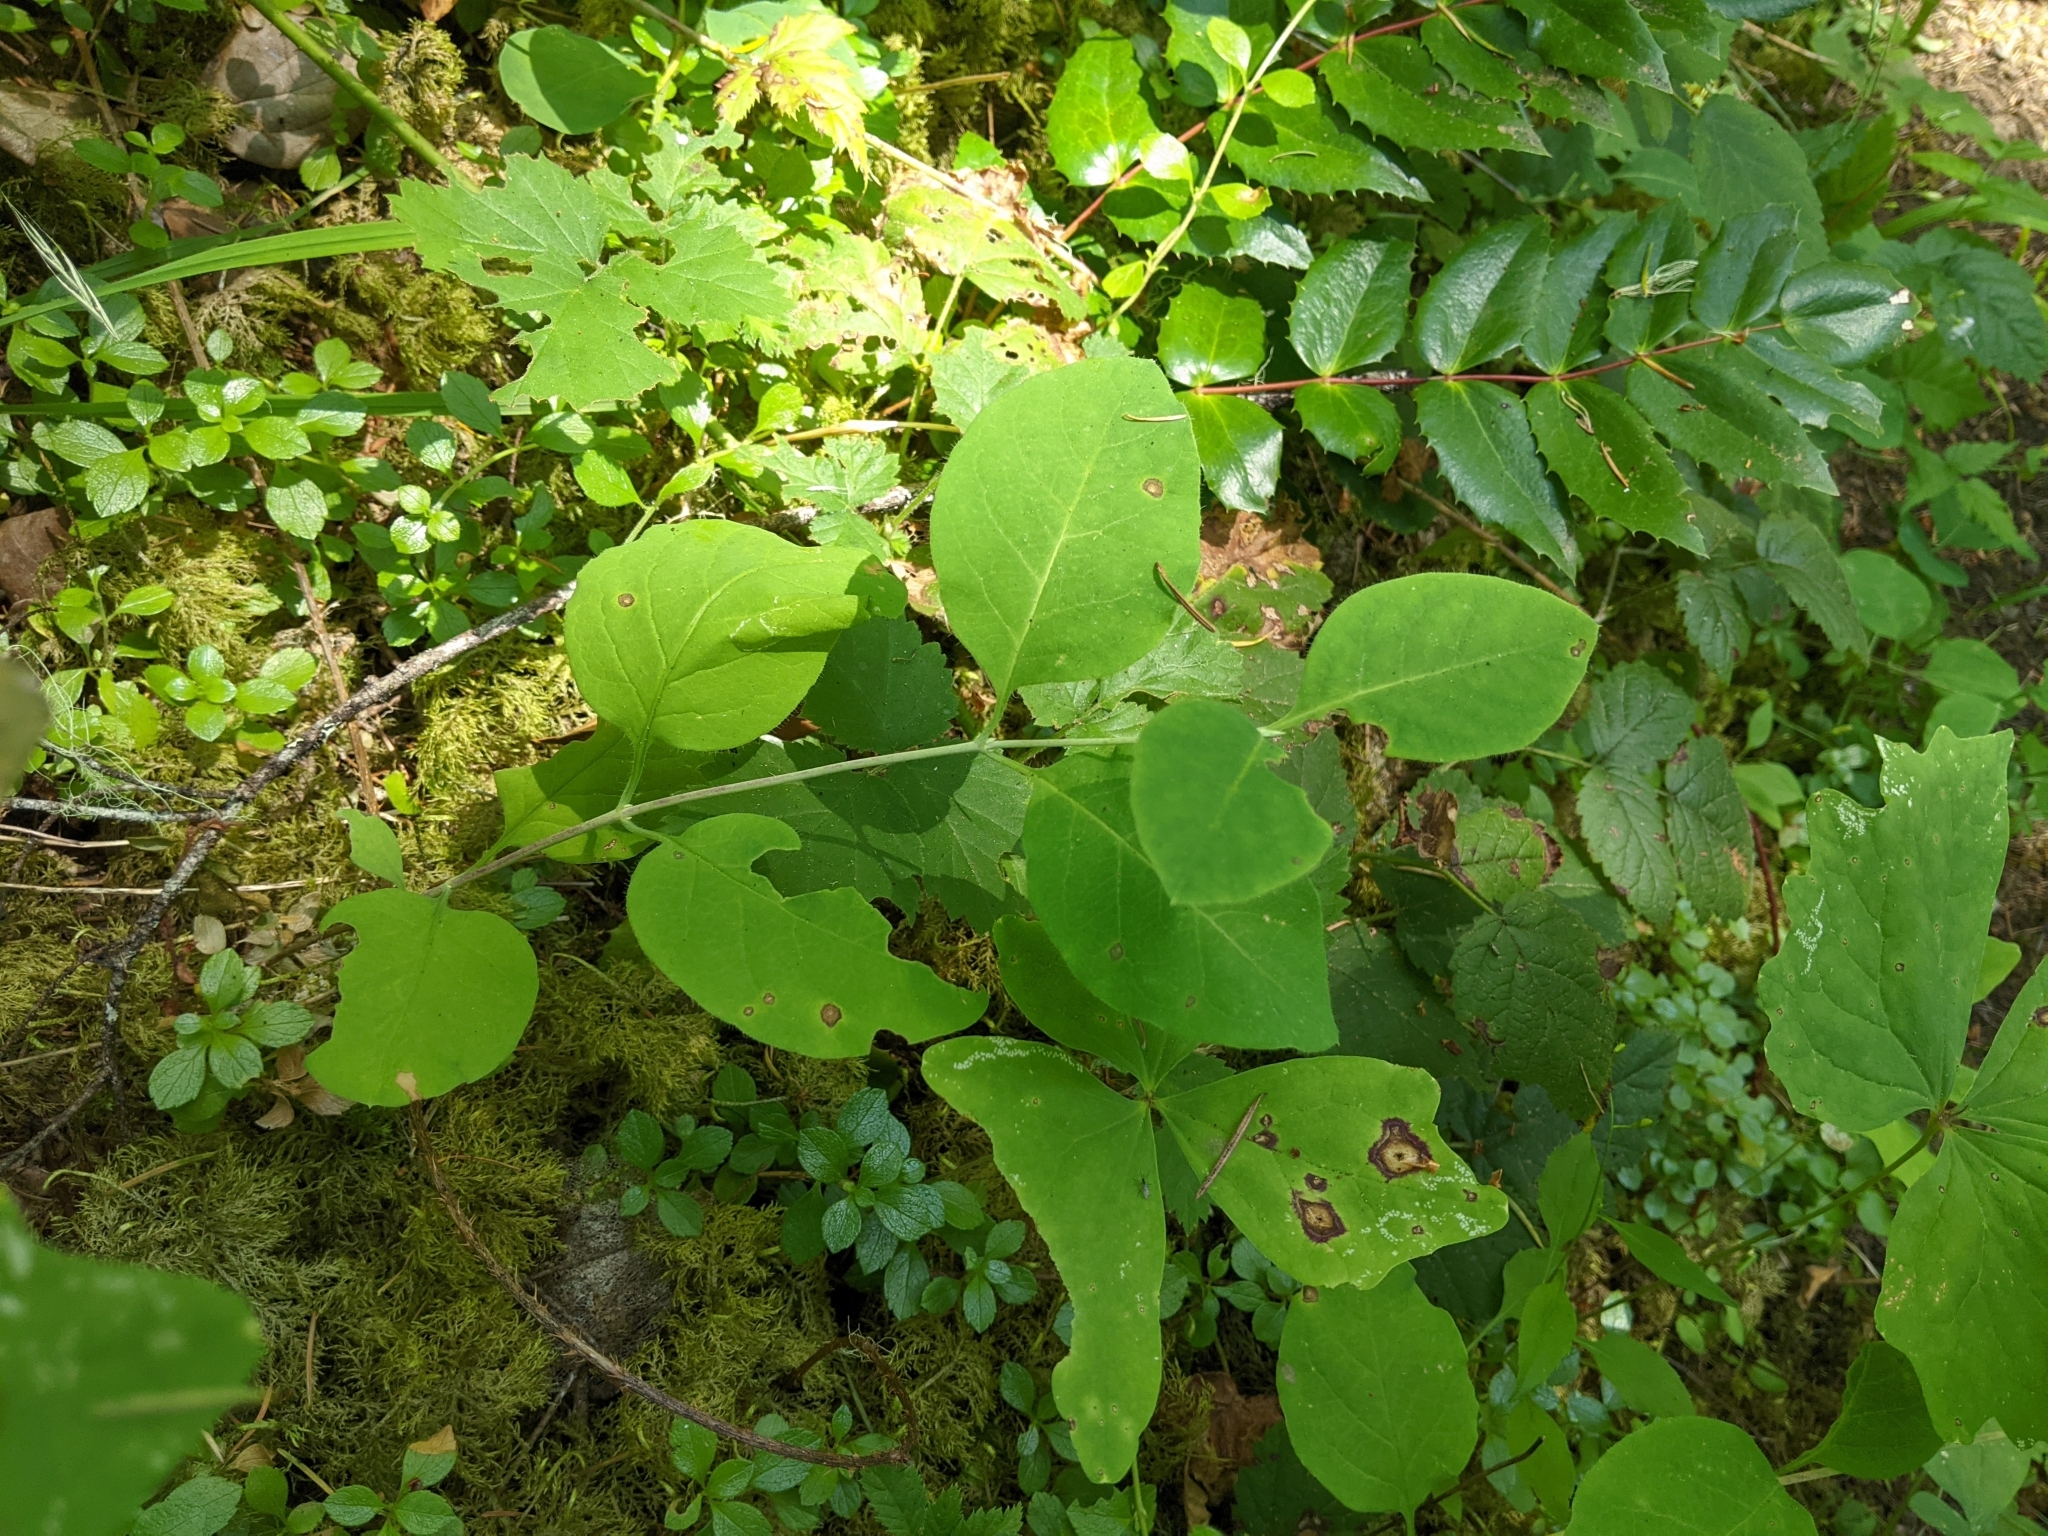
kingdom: Plantae
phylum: Tracheophyta
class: Magnoliopsida
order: Dipsacales
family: Caprifoliaceae
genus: Lonicera
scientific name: Lonicera ciliosa
